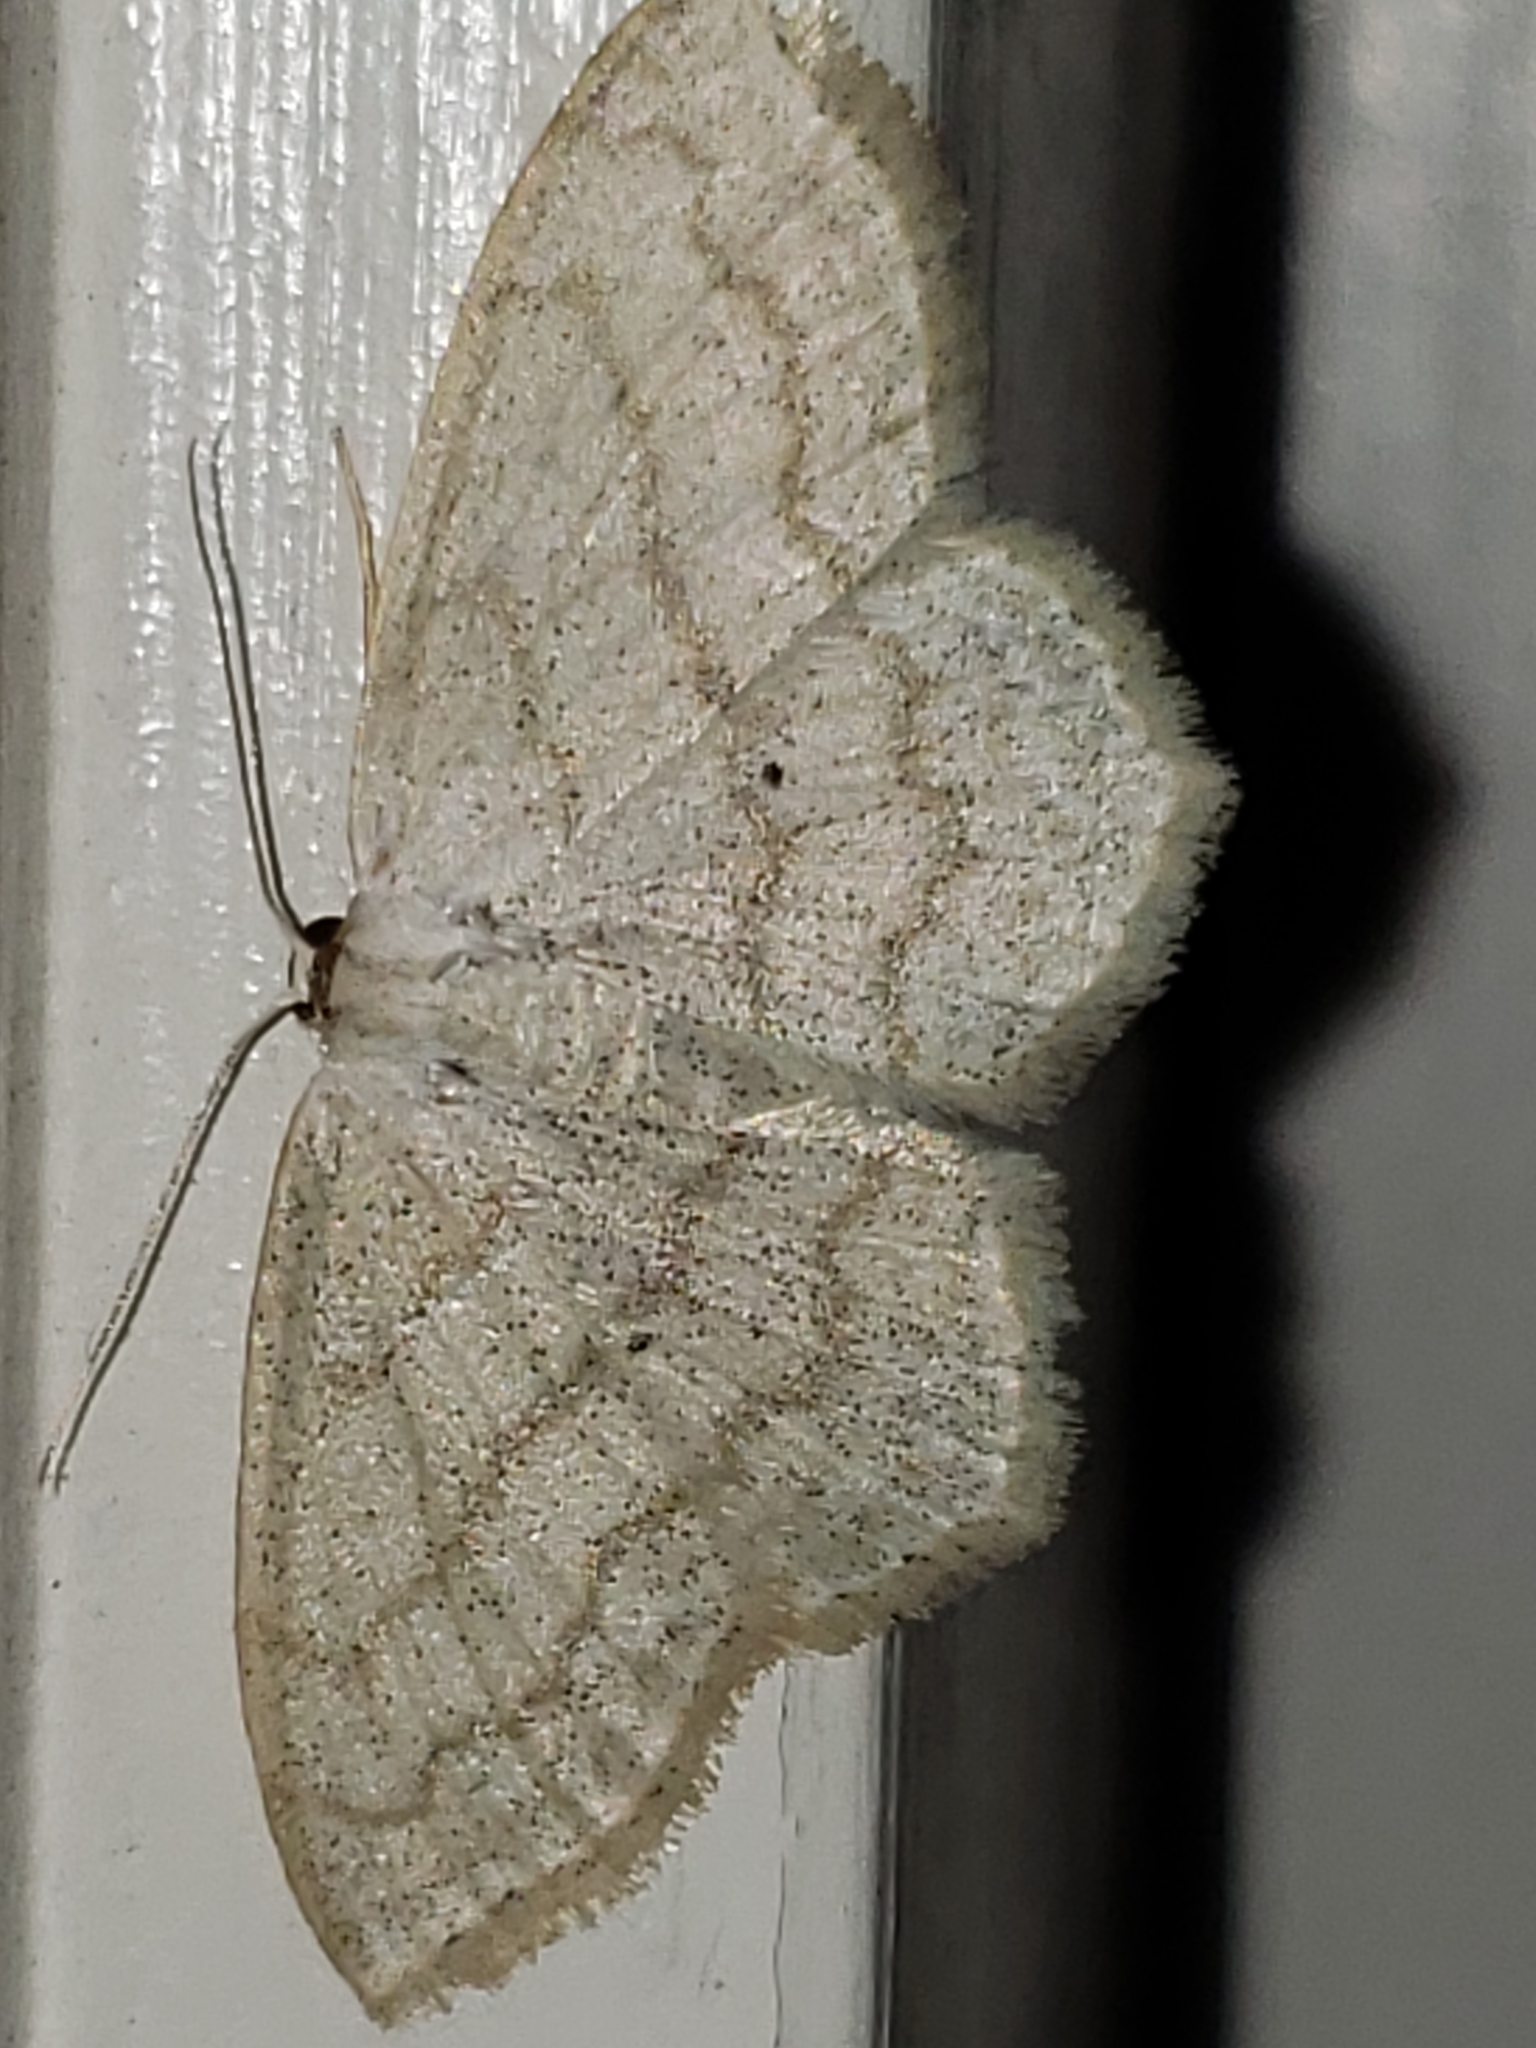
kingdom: Animalia
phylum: Arthropoda
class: Insecta
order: Lepidoptera
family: Geometridae
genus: Scopula
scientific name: Scopula limboundata
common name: Large lace border
